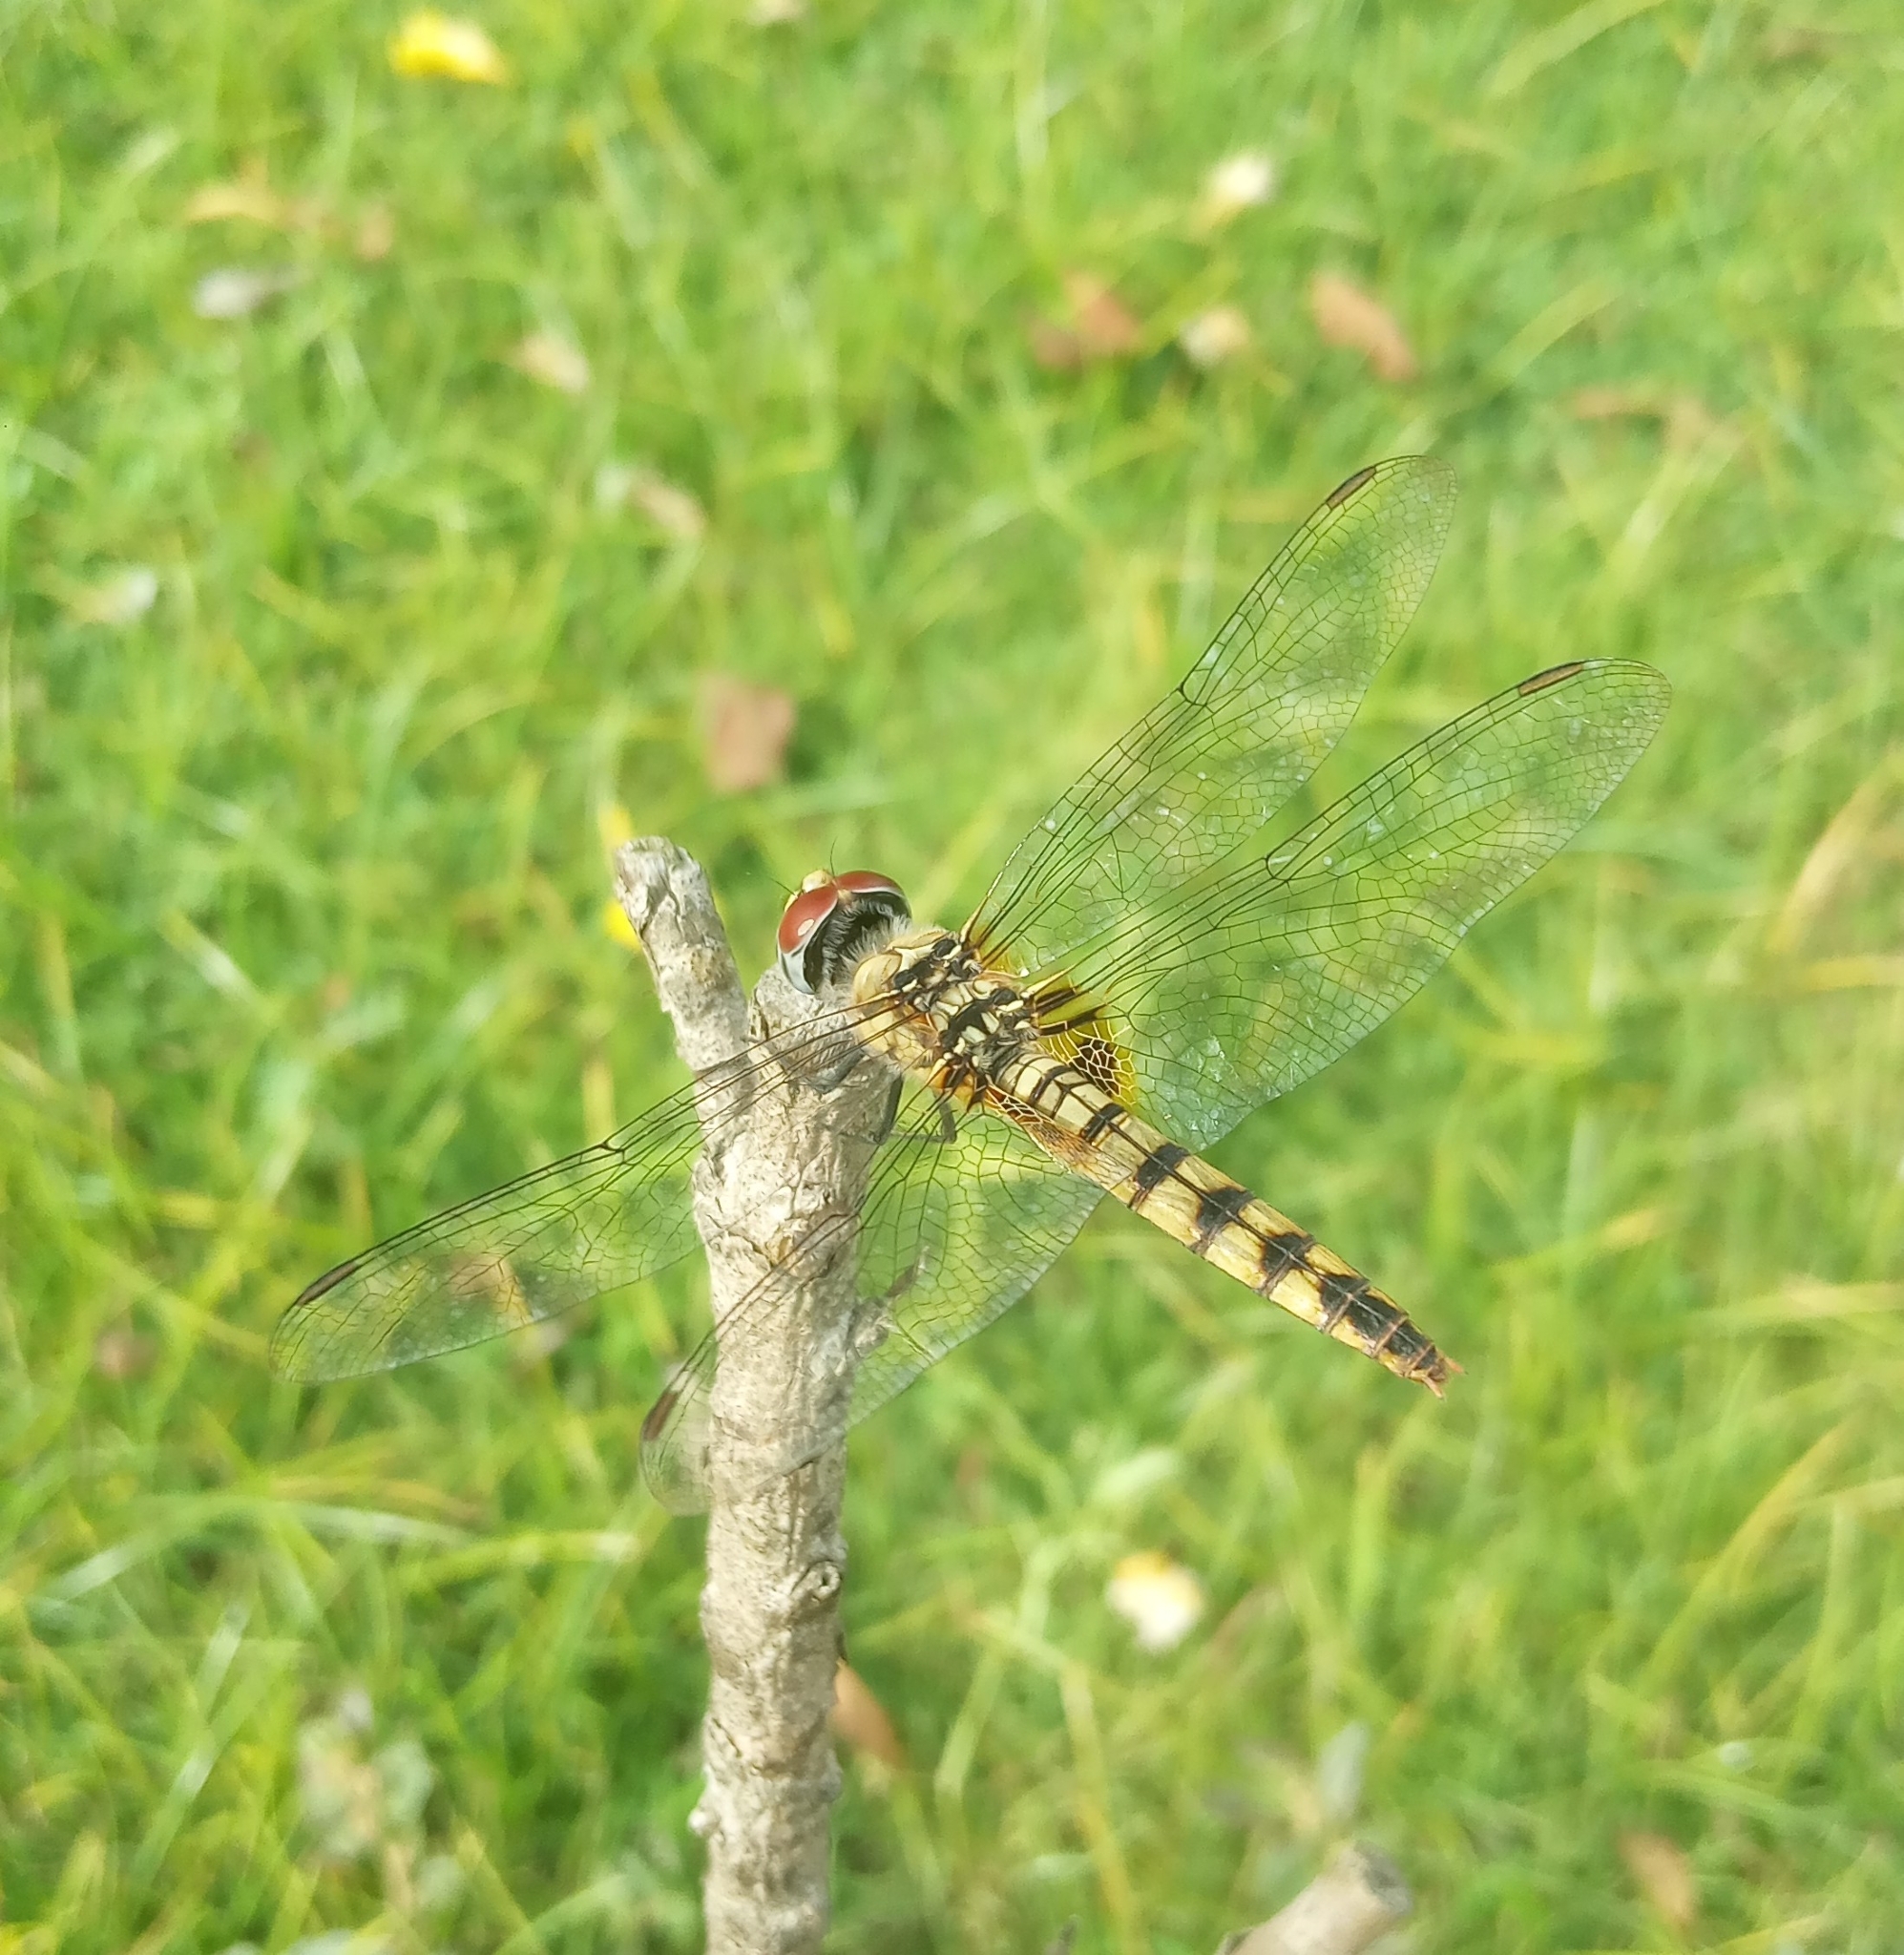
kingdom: Animalia
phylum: Arthropoda
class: Insecta
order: Odonata
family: Libellulidae
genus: Urothemis
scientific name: Urothemis signata
